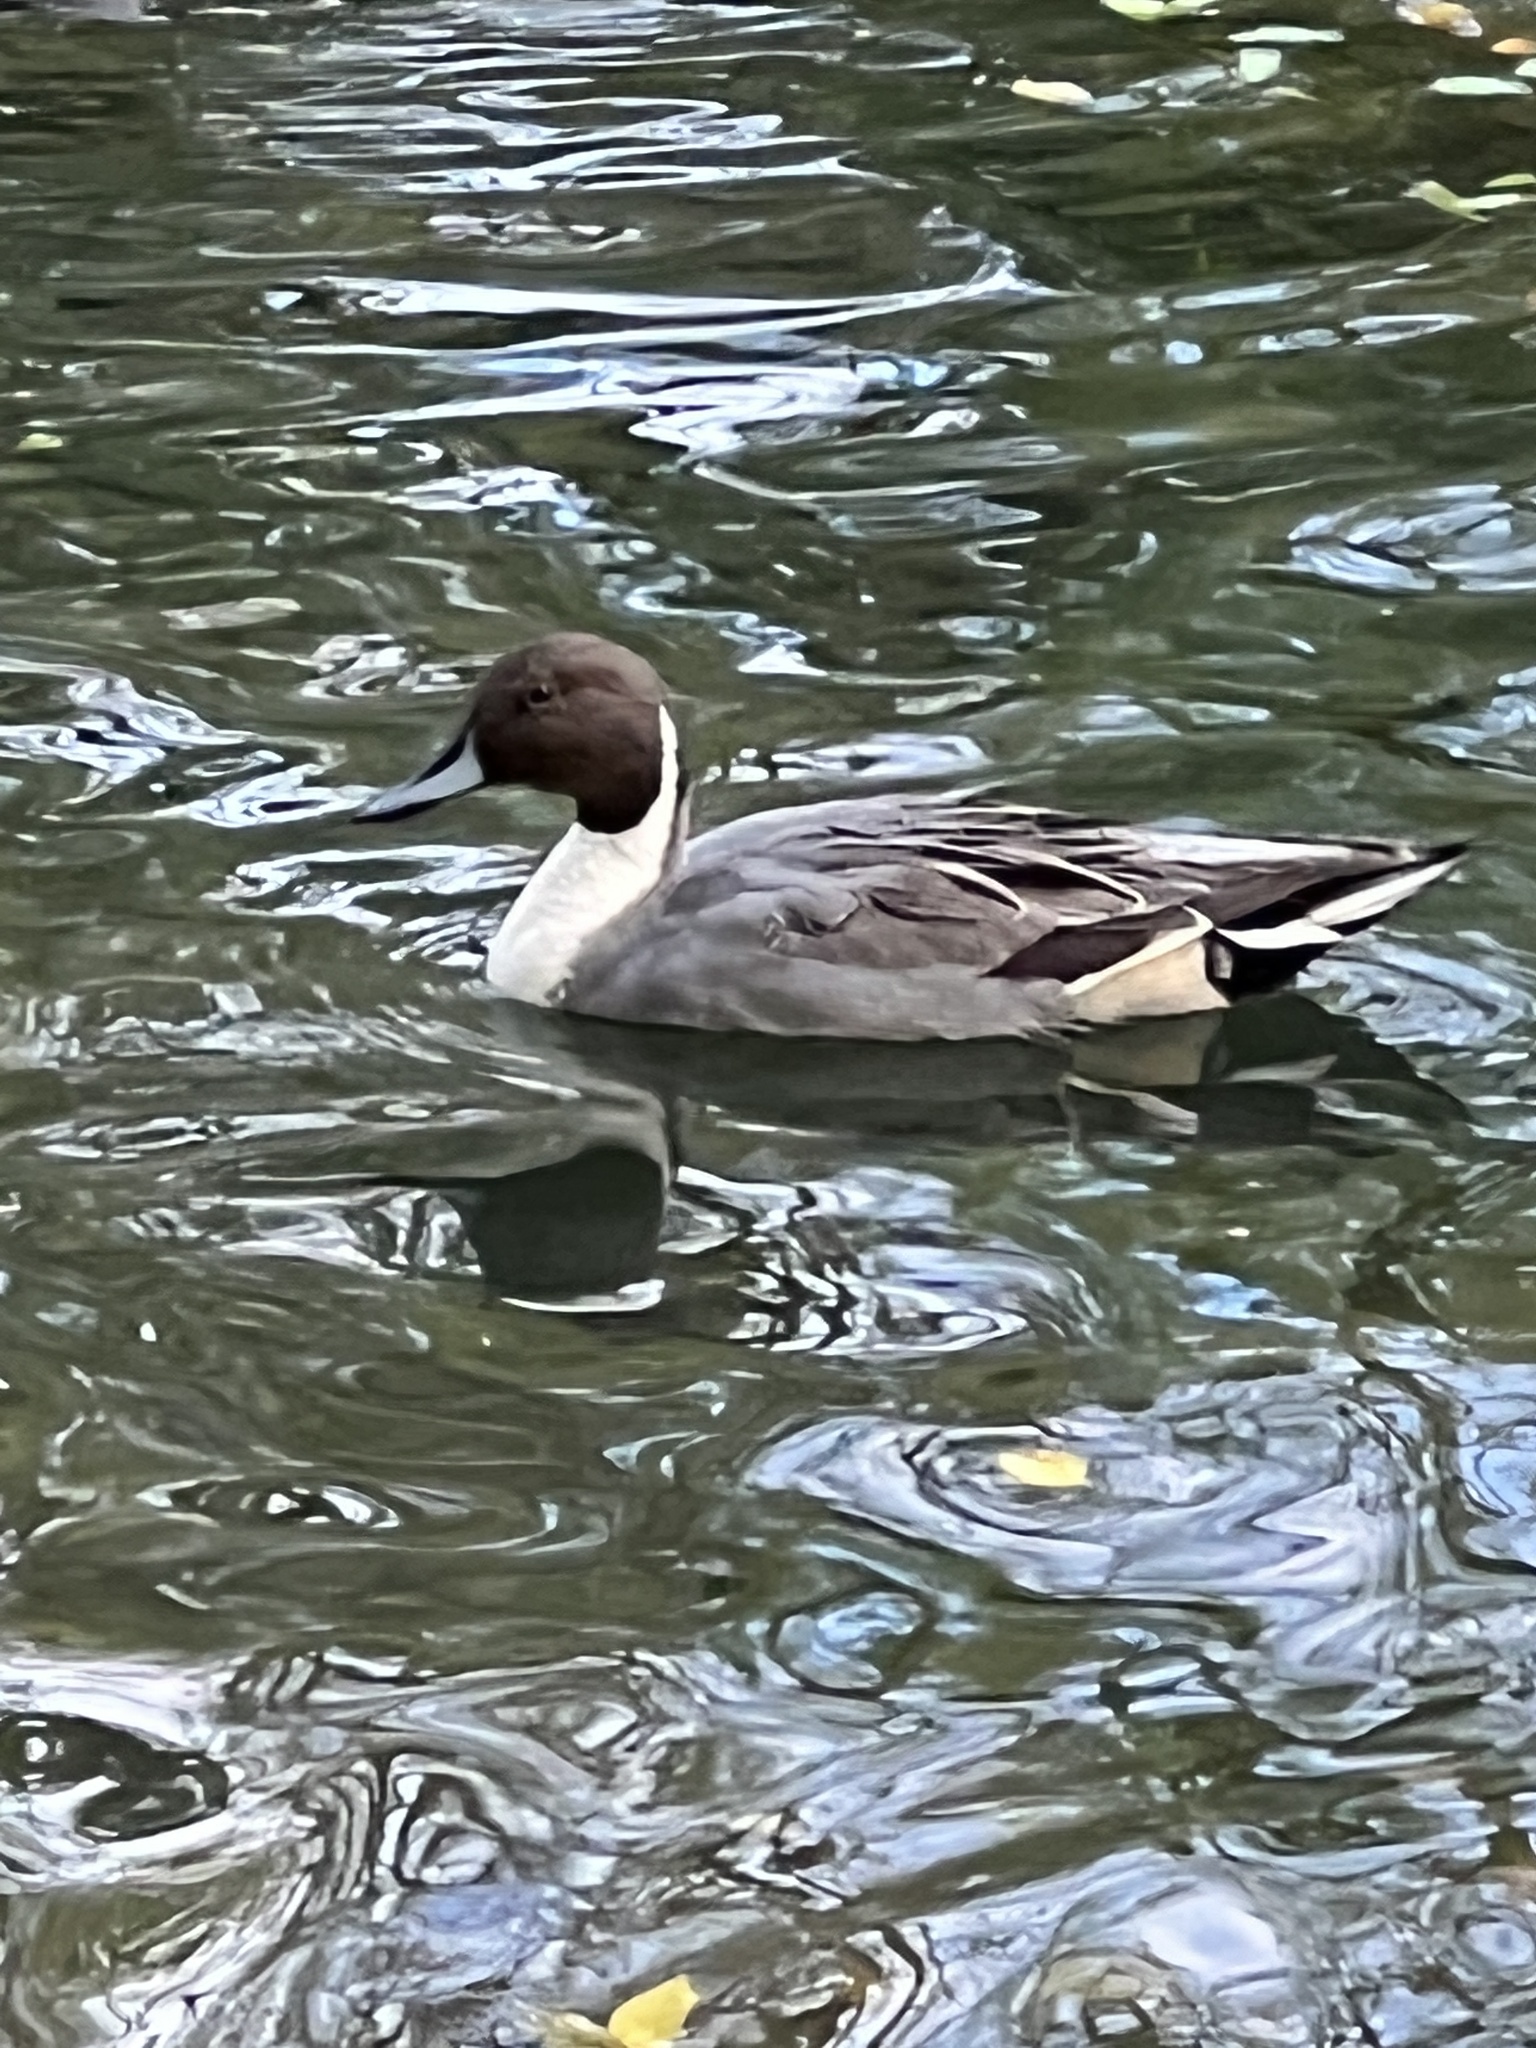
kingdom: Animalia
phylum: Chordata
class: Aves
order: Anseriformes
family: Anatidae
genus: Anas
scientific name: Anas acuta
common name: Northern pintail
